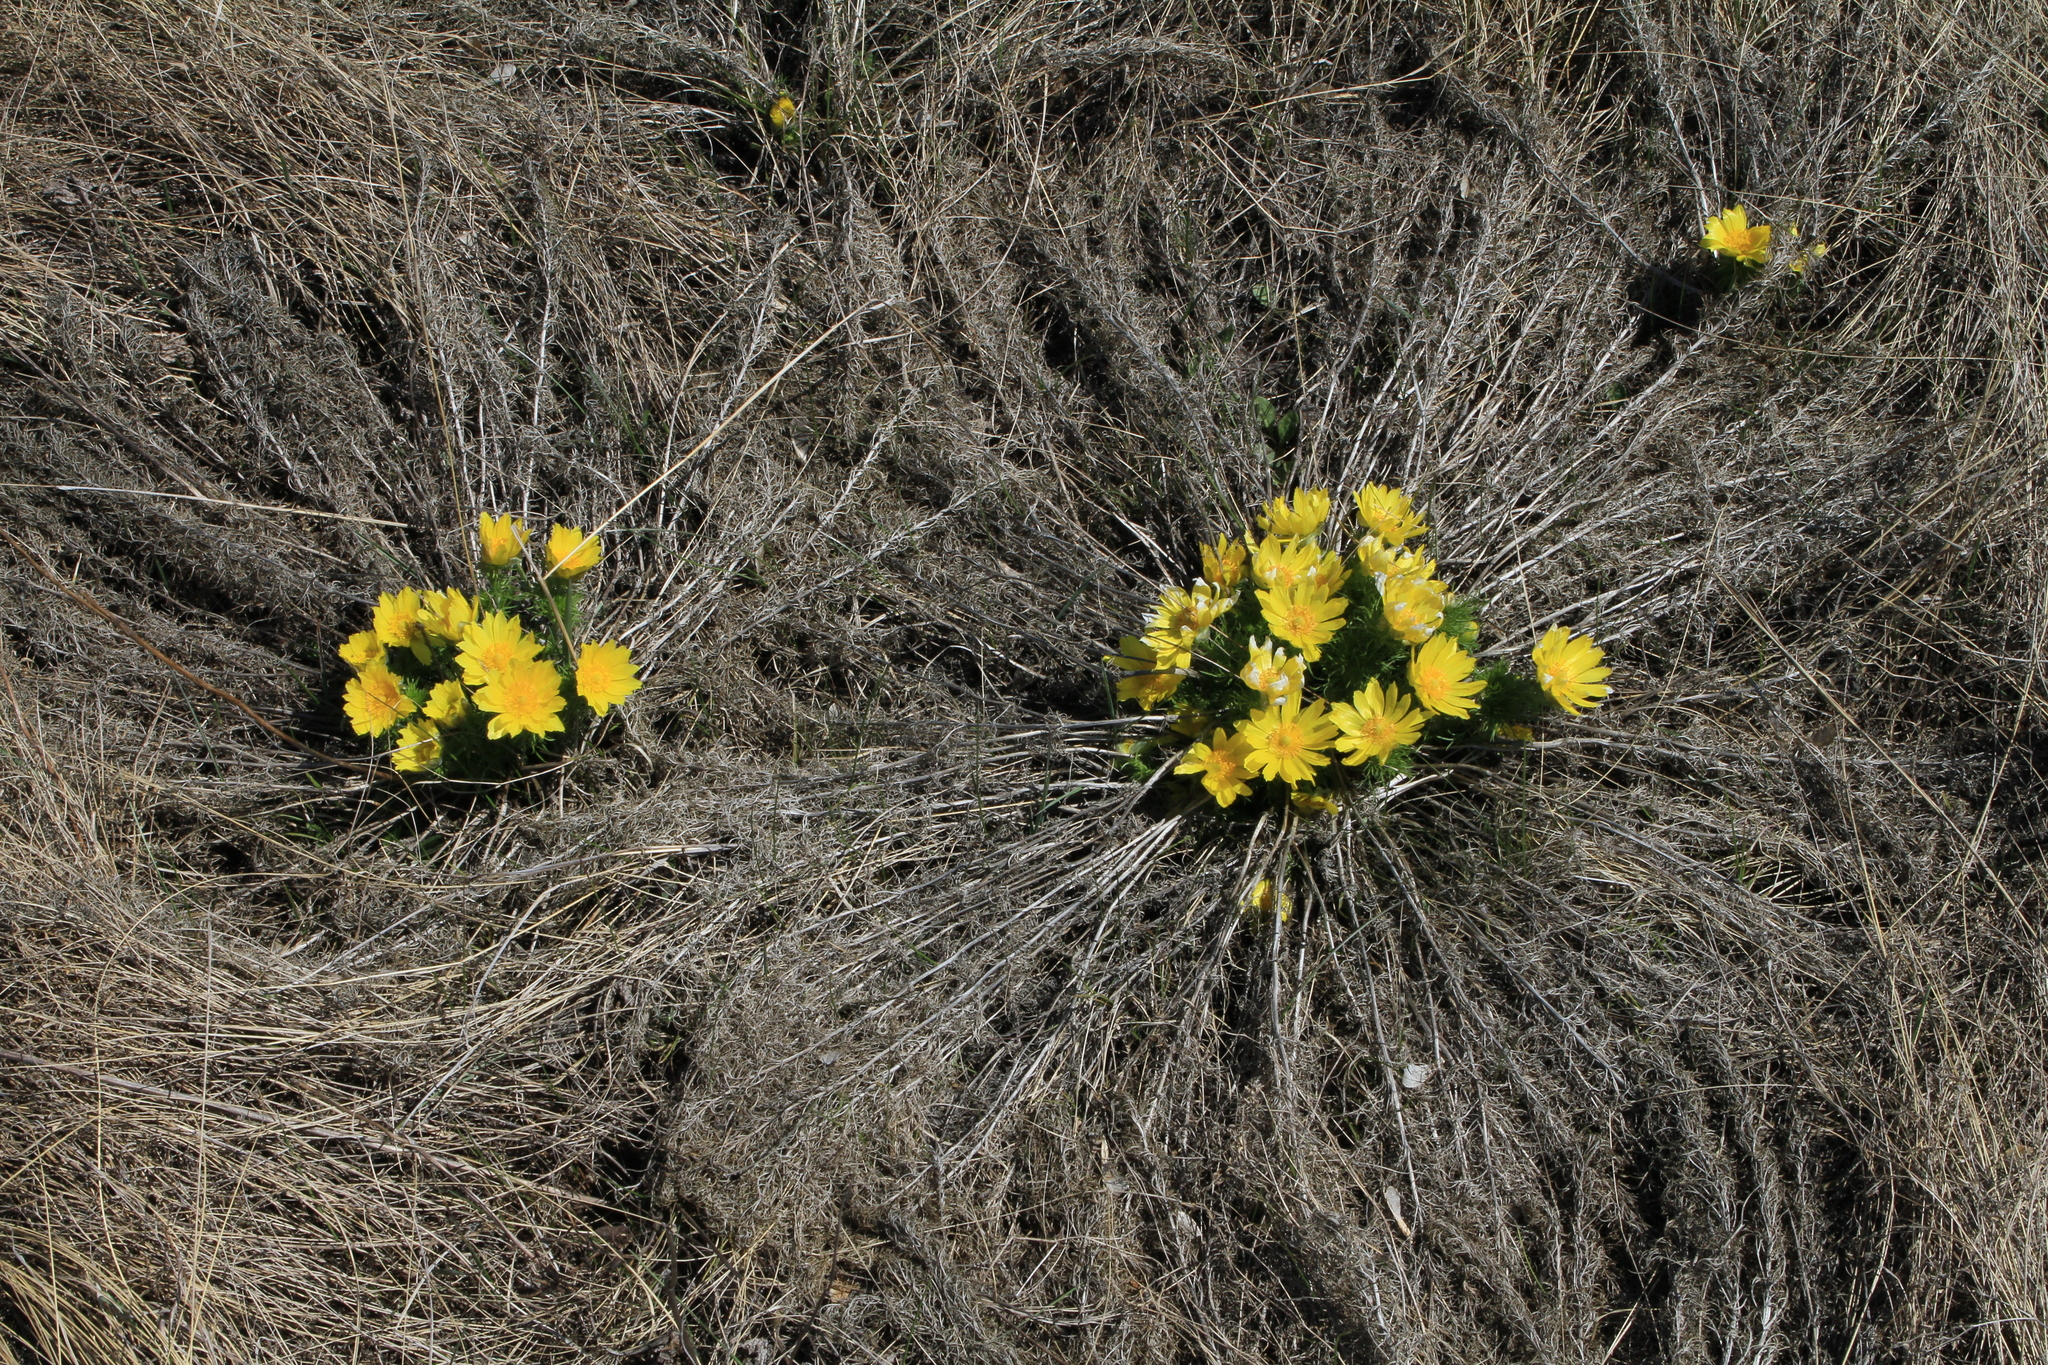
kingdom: Plantae
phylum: Tracheophyta
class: Magnoliopsida
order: Ranunculales
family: Ranunculaceae
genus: Adonis
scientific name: Adonis vernalis
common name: Yellow pheasants-eye
